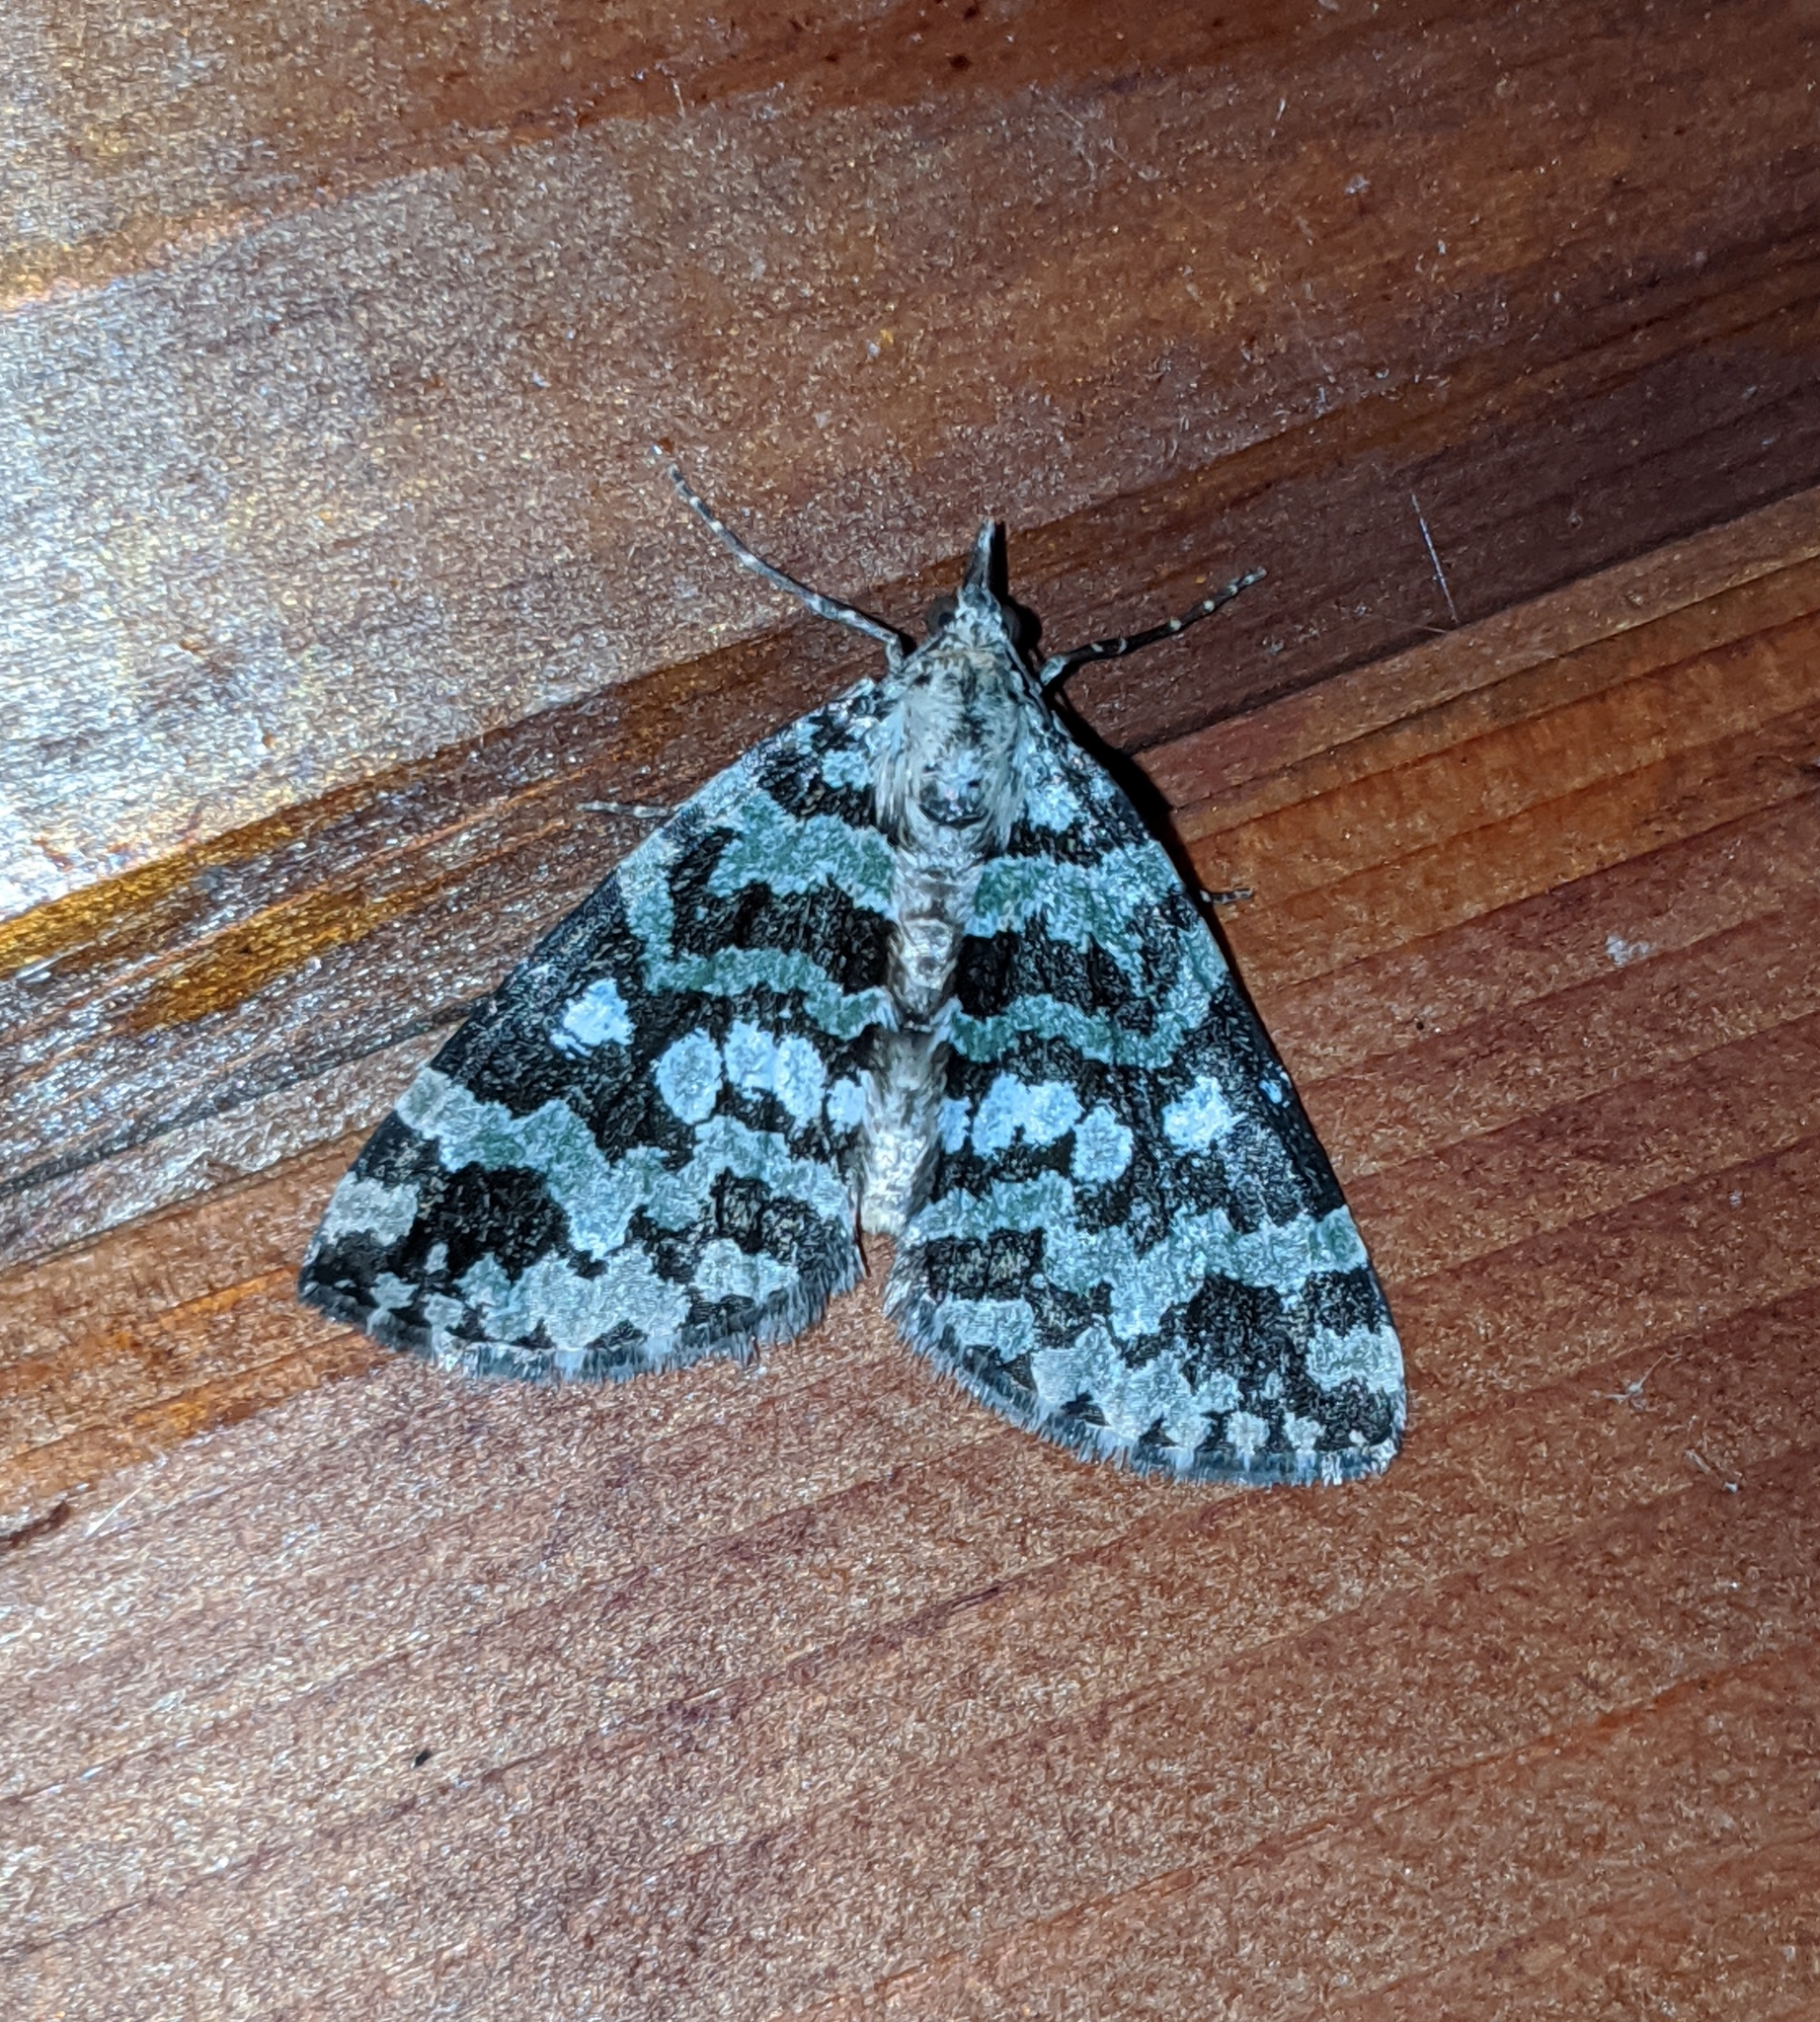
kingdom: Animalia
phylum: Arthropoda
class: Insecta
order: Lepidoptera
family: Geometridae
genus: Hydriomena
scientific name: Hydriomena speciosata
